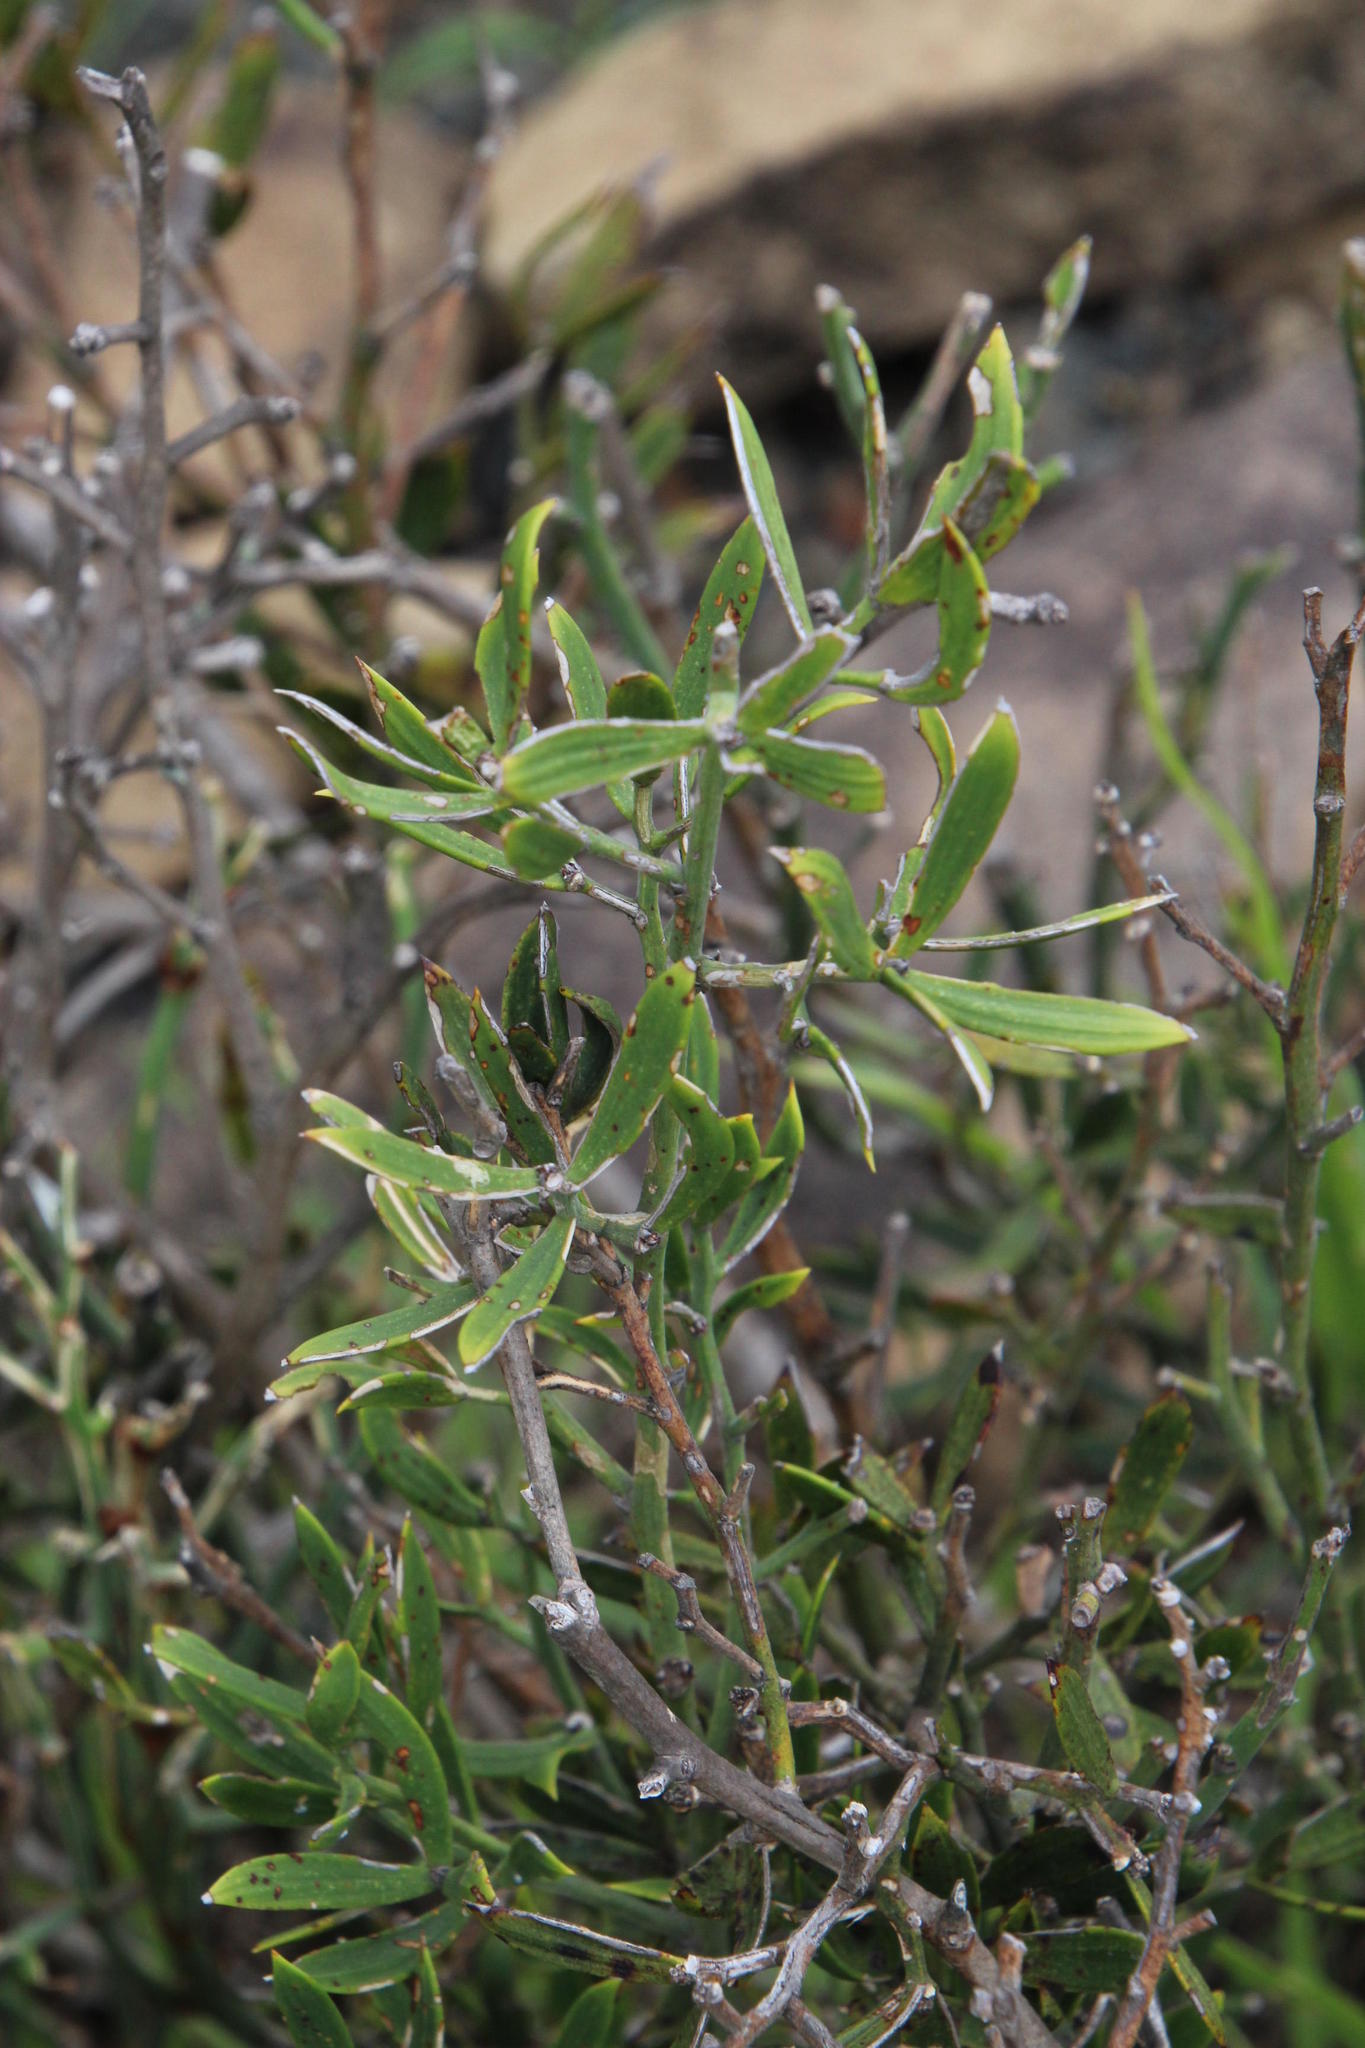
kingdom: Plantae
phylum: Tracheophyta
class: Liliopsida
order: Asparagales
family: Asparagaceae
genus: Asparagus
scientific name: Asparagus striatus
